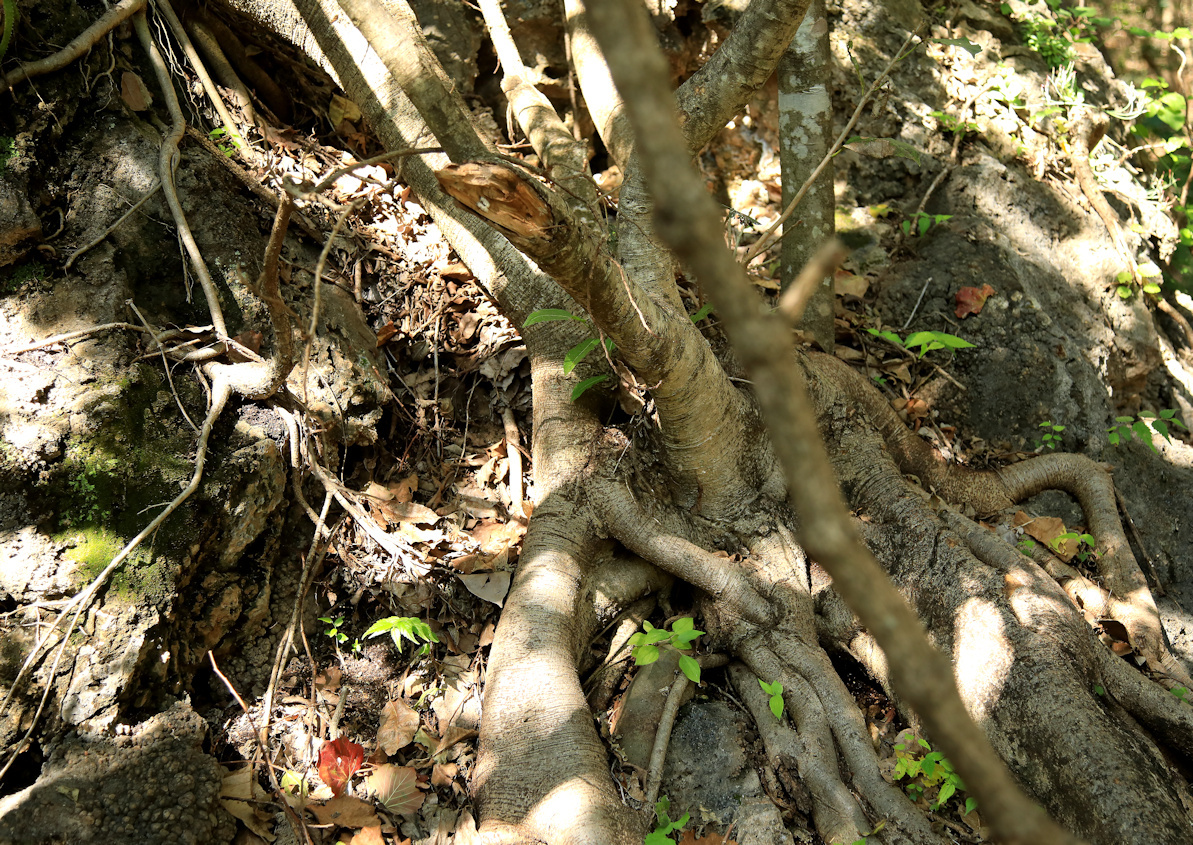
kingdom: Plantae
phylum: Tracheophyta
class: Magnoliopsida
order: Rosales
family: Moraceae
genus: Ficus
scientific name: Ficus ingens
